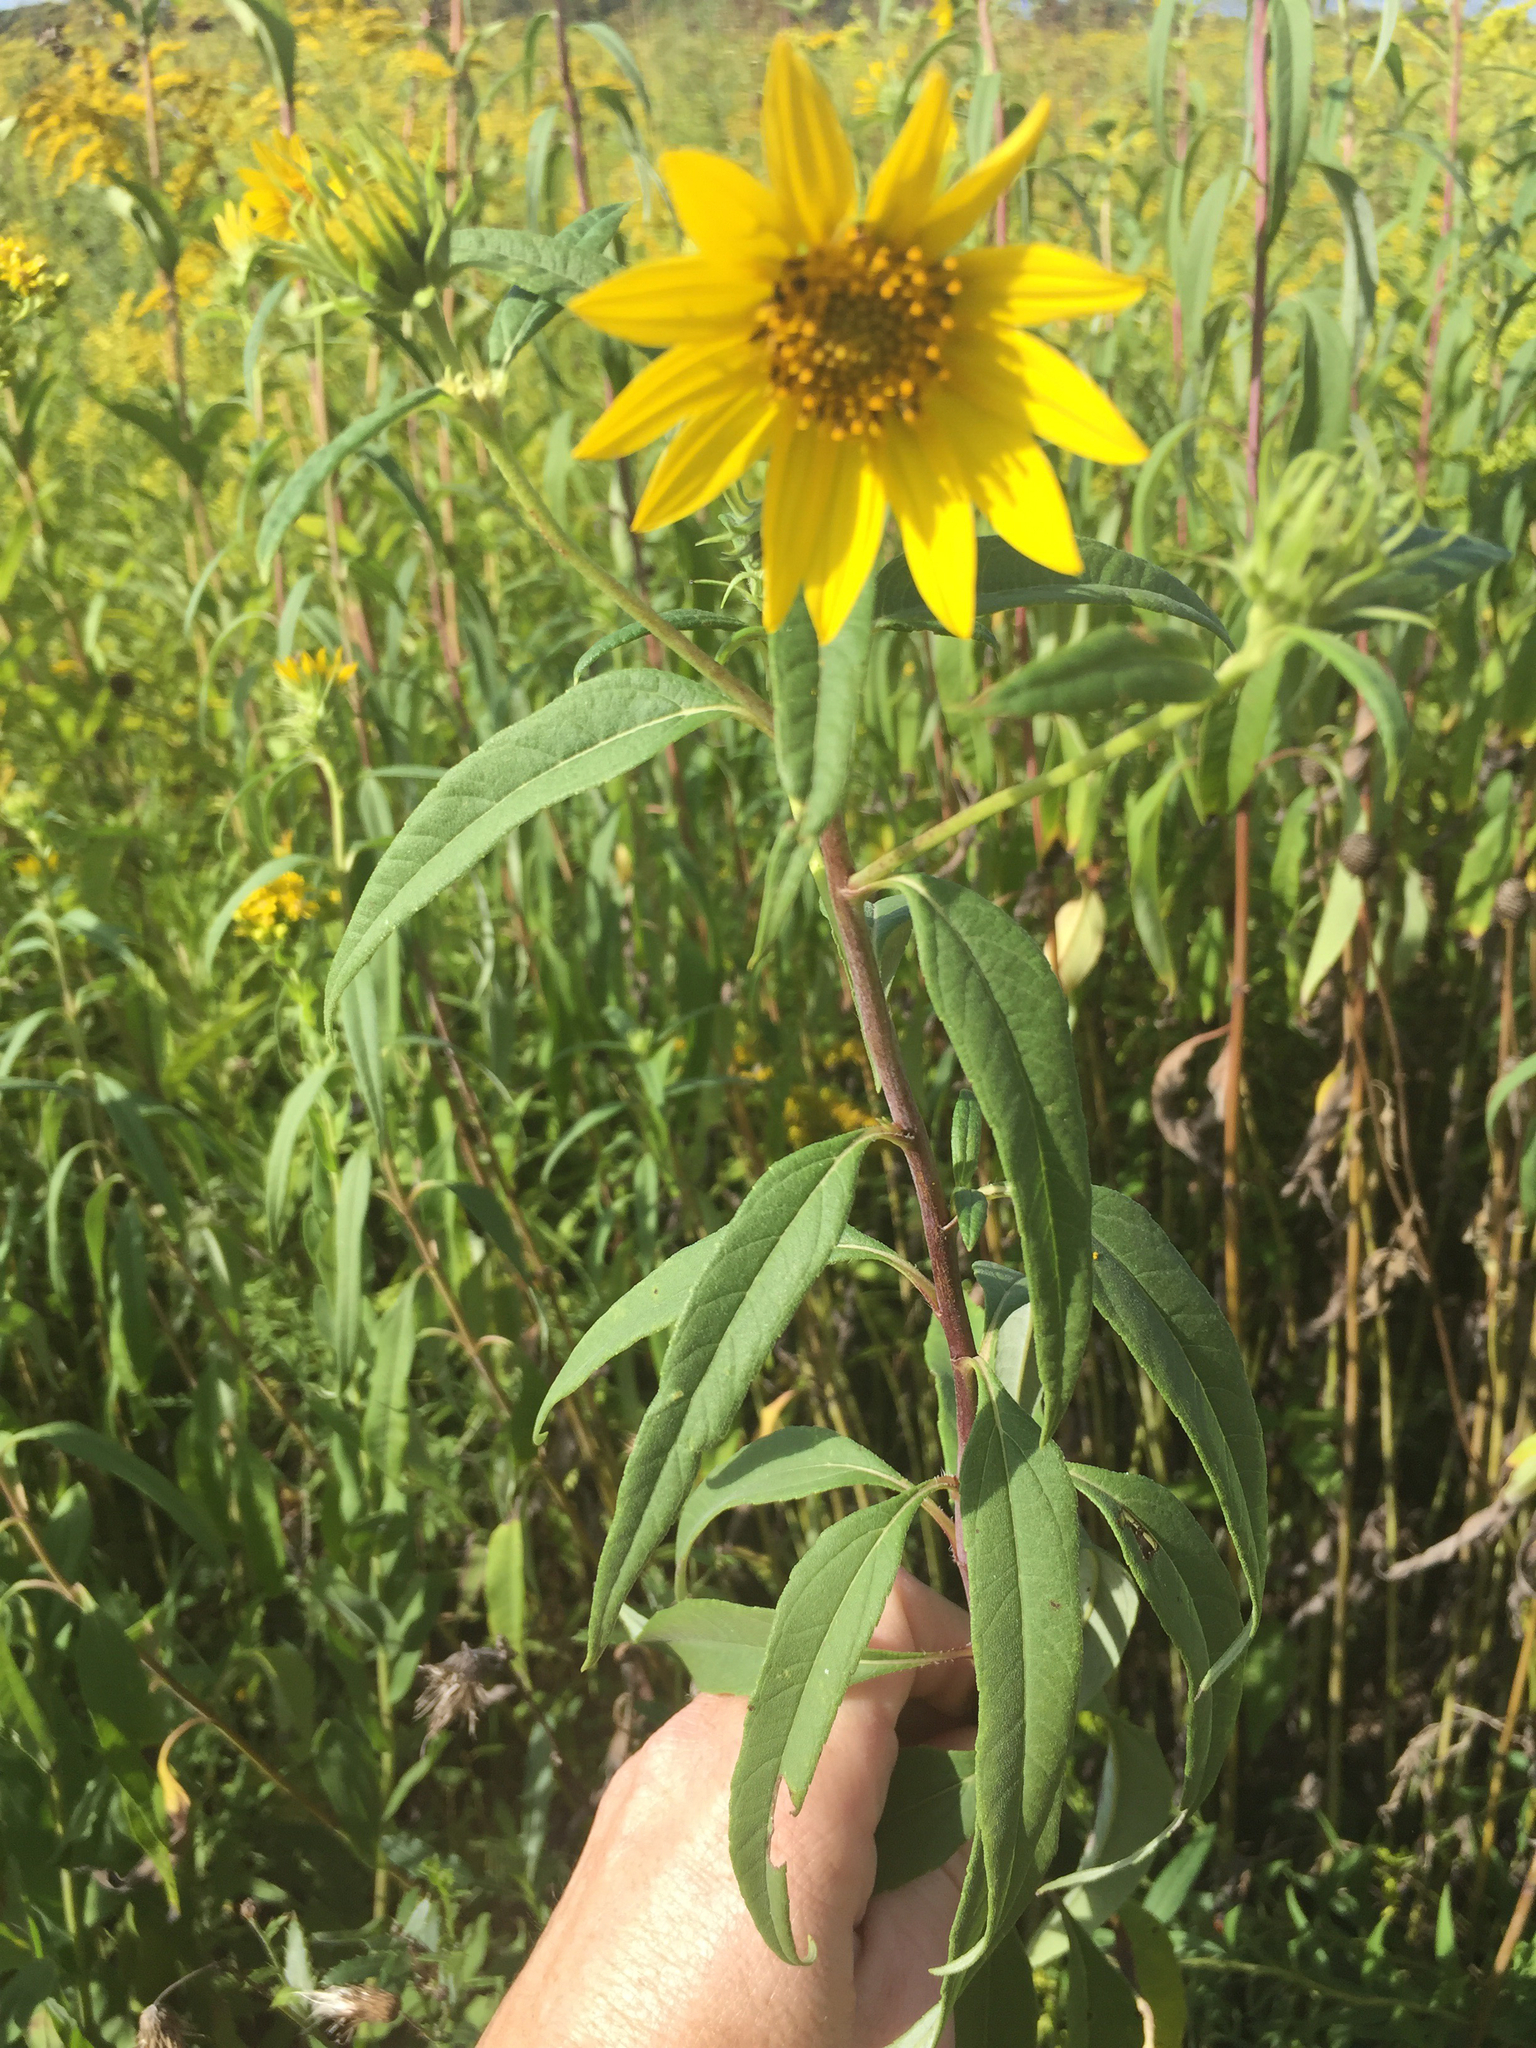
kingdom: Plantae
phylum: Tracheophyta
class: Magnoliopsida
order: Asterales
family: Asteraceae
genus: Helianthus
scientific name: Helianthus giganteus
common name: Giant sunflower
